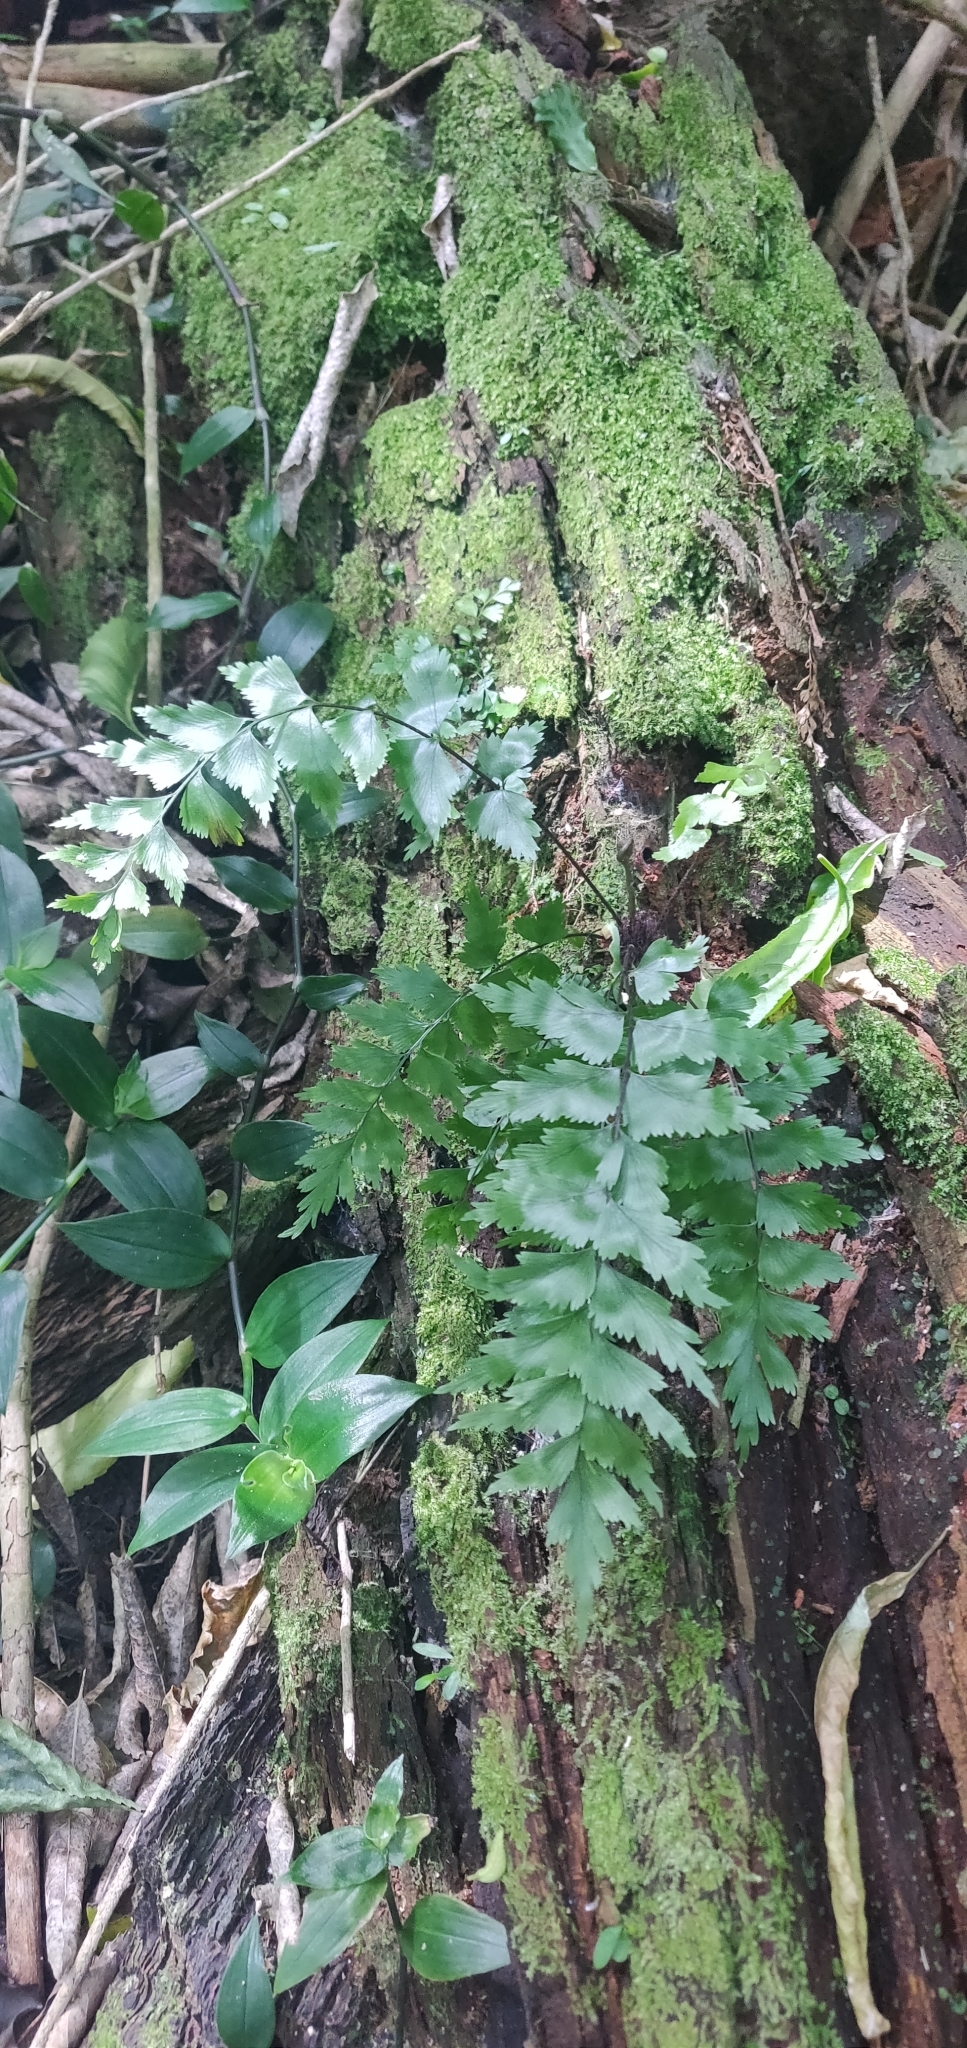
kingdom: Plantae
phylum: Tracheophyta
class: Polypodiopsida
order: Polypodiales
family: Aspleniaceae
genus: Asplenium
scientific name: Asplenium polyodon
